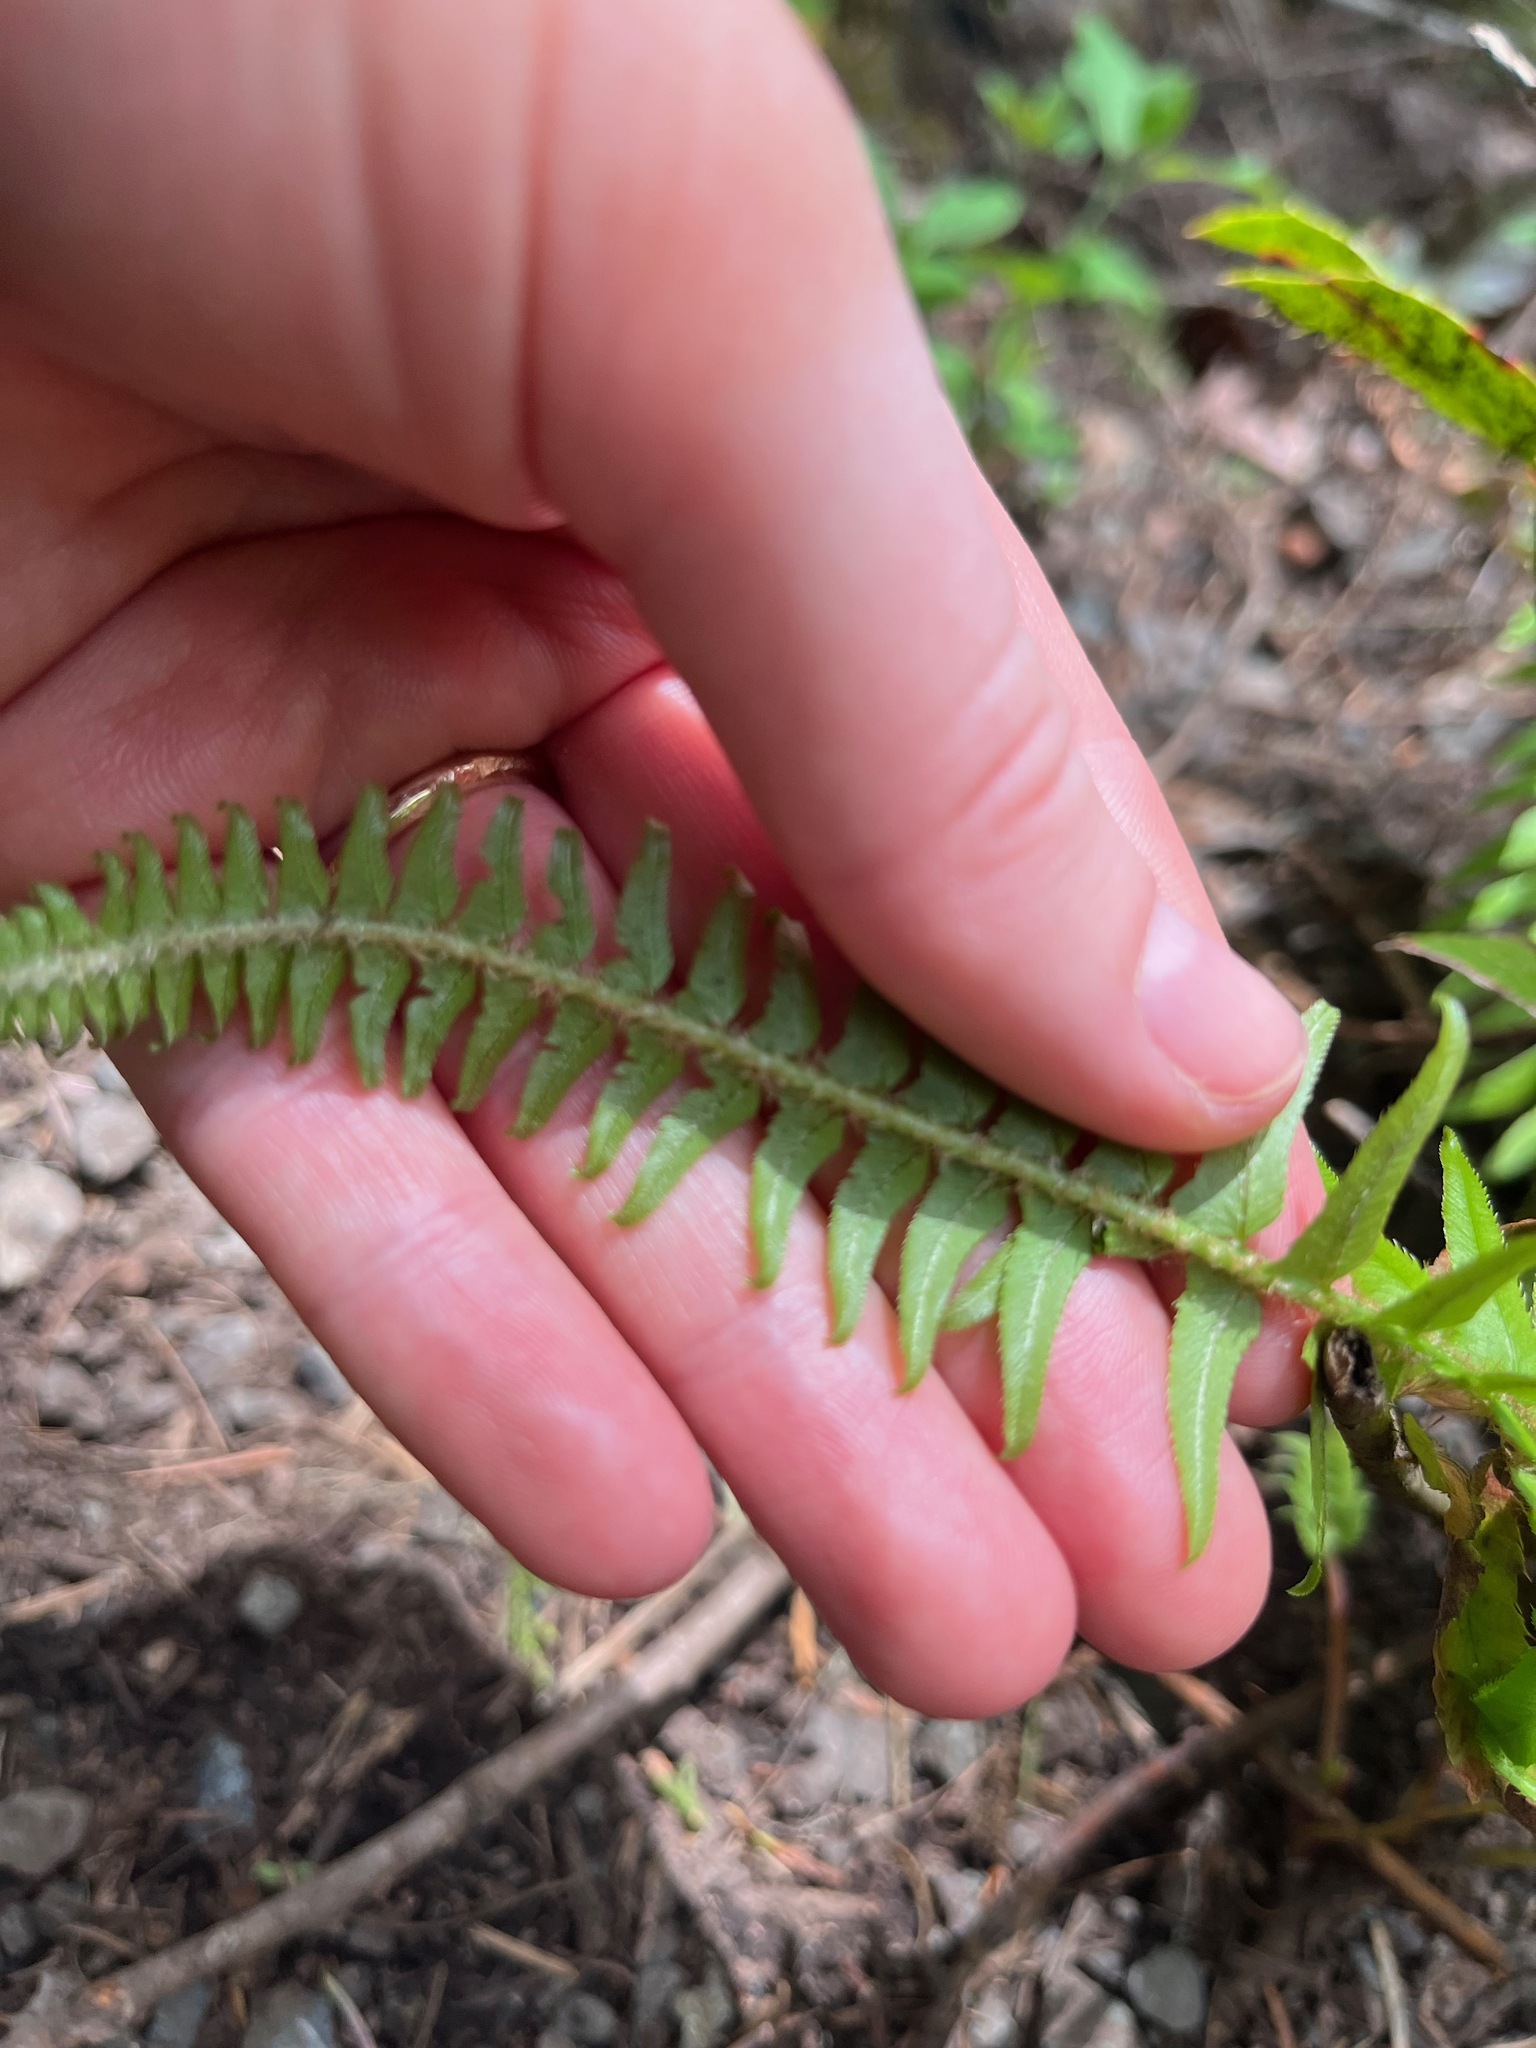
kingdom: Plantae
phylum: Tracheophyta
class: Polypodiopsida
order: Polypodiales
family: Dryopteridaceae
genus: Polystichum
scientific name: Polystichum munitum
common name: Western sword-fern
